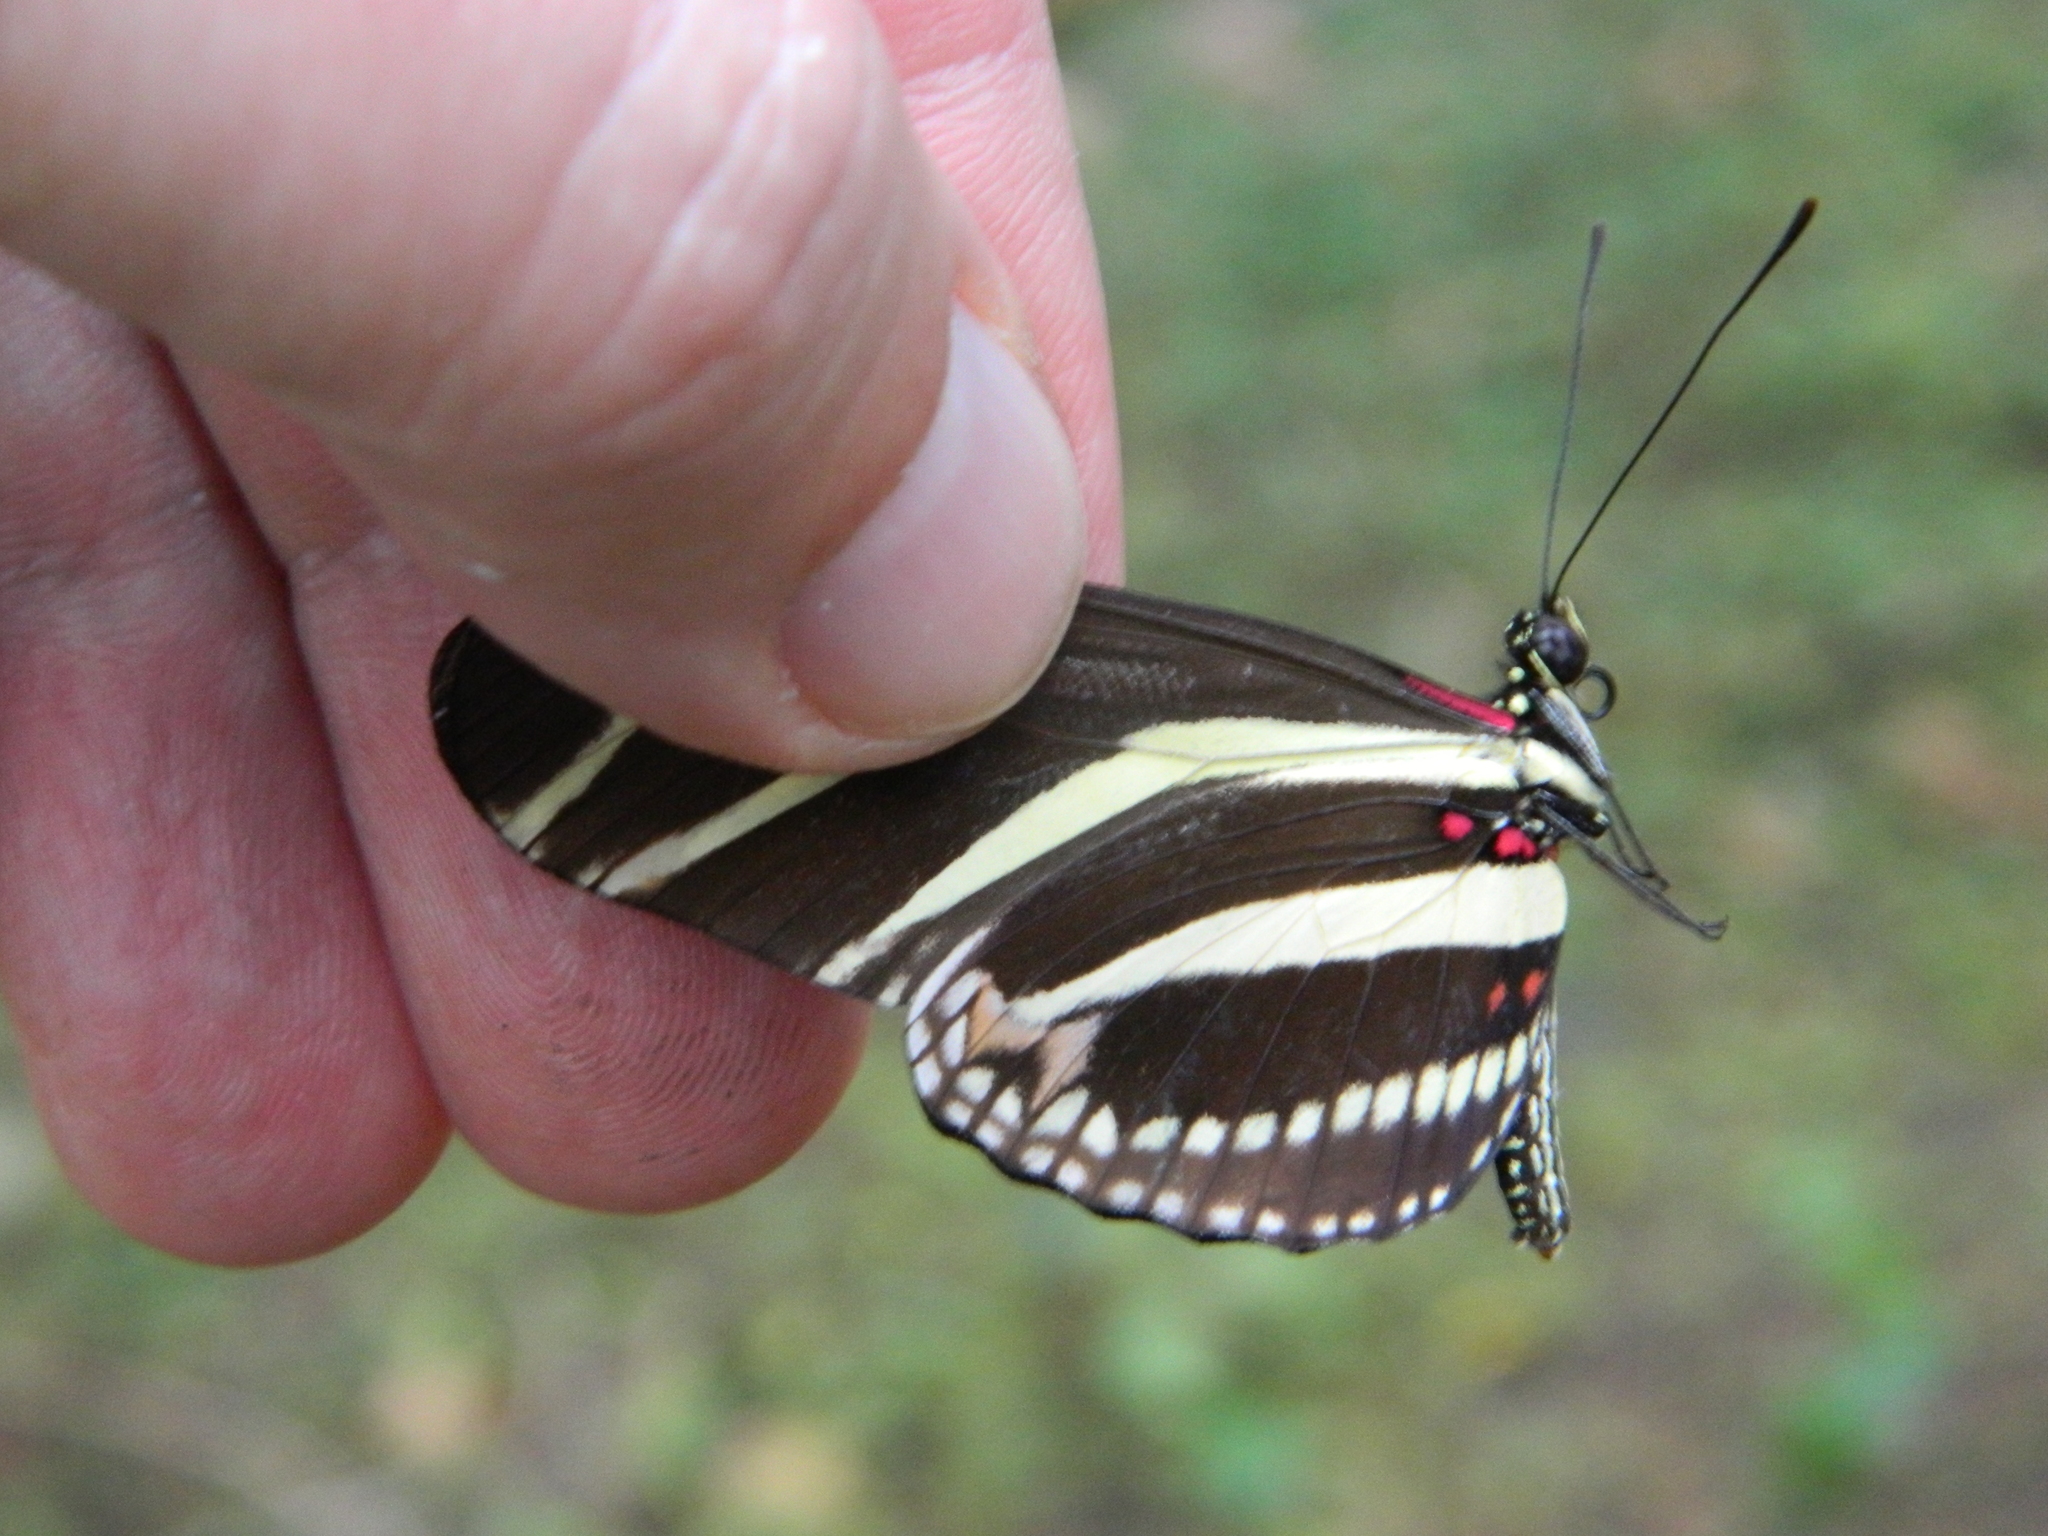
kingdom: Animalia
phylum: Arthropoda
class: Insecta
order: Lepidoptera
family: Nymphalidae
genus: Heliconius
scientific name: Heliconius charithonia
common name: Zebra long wing
